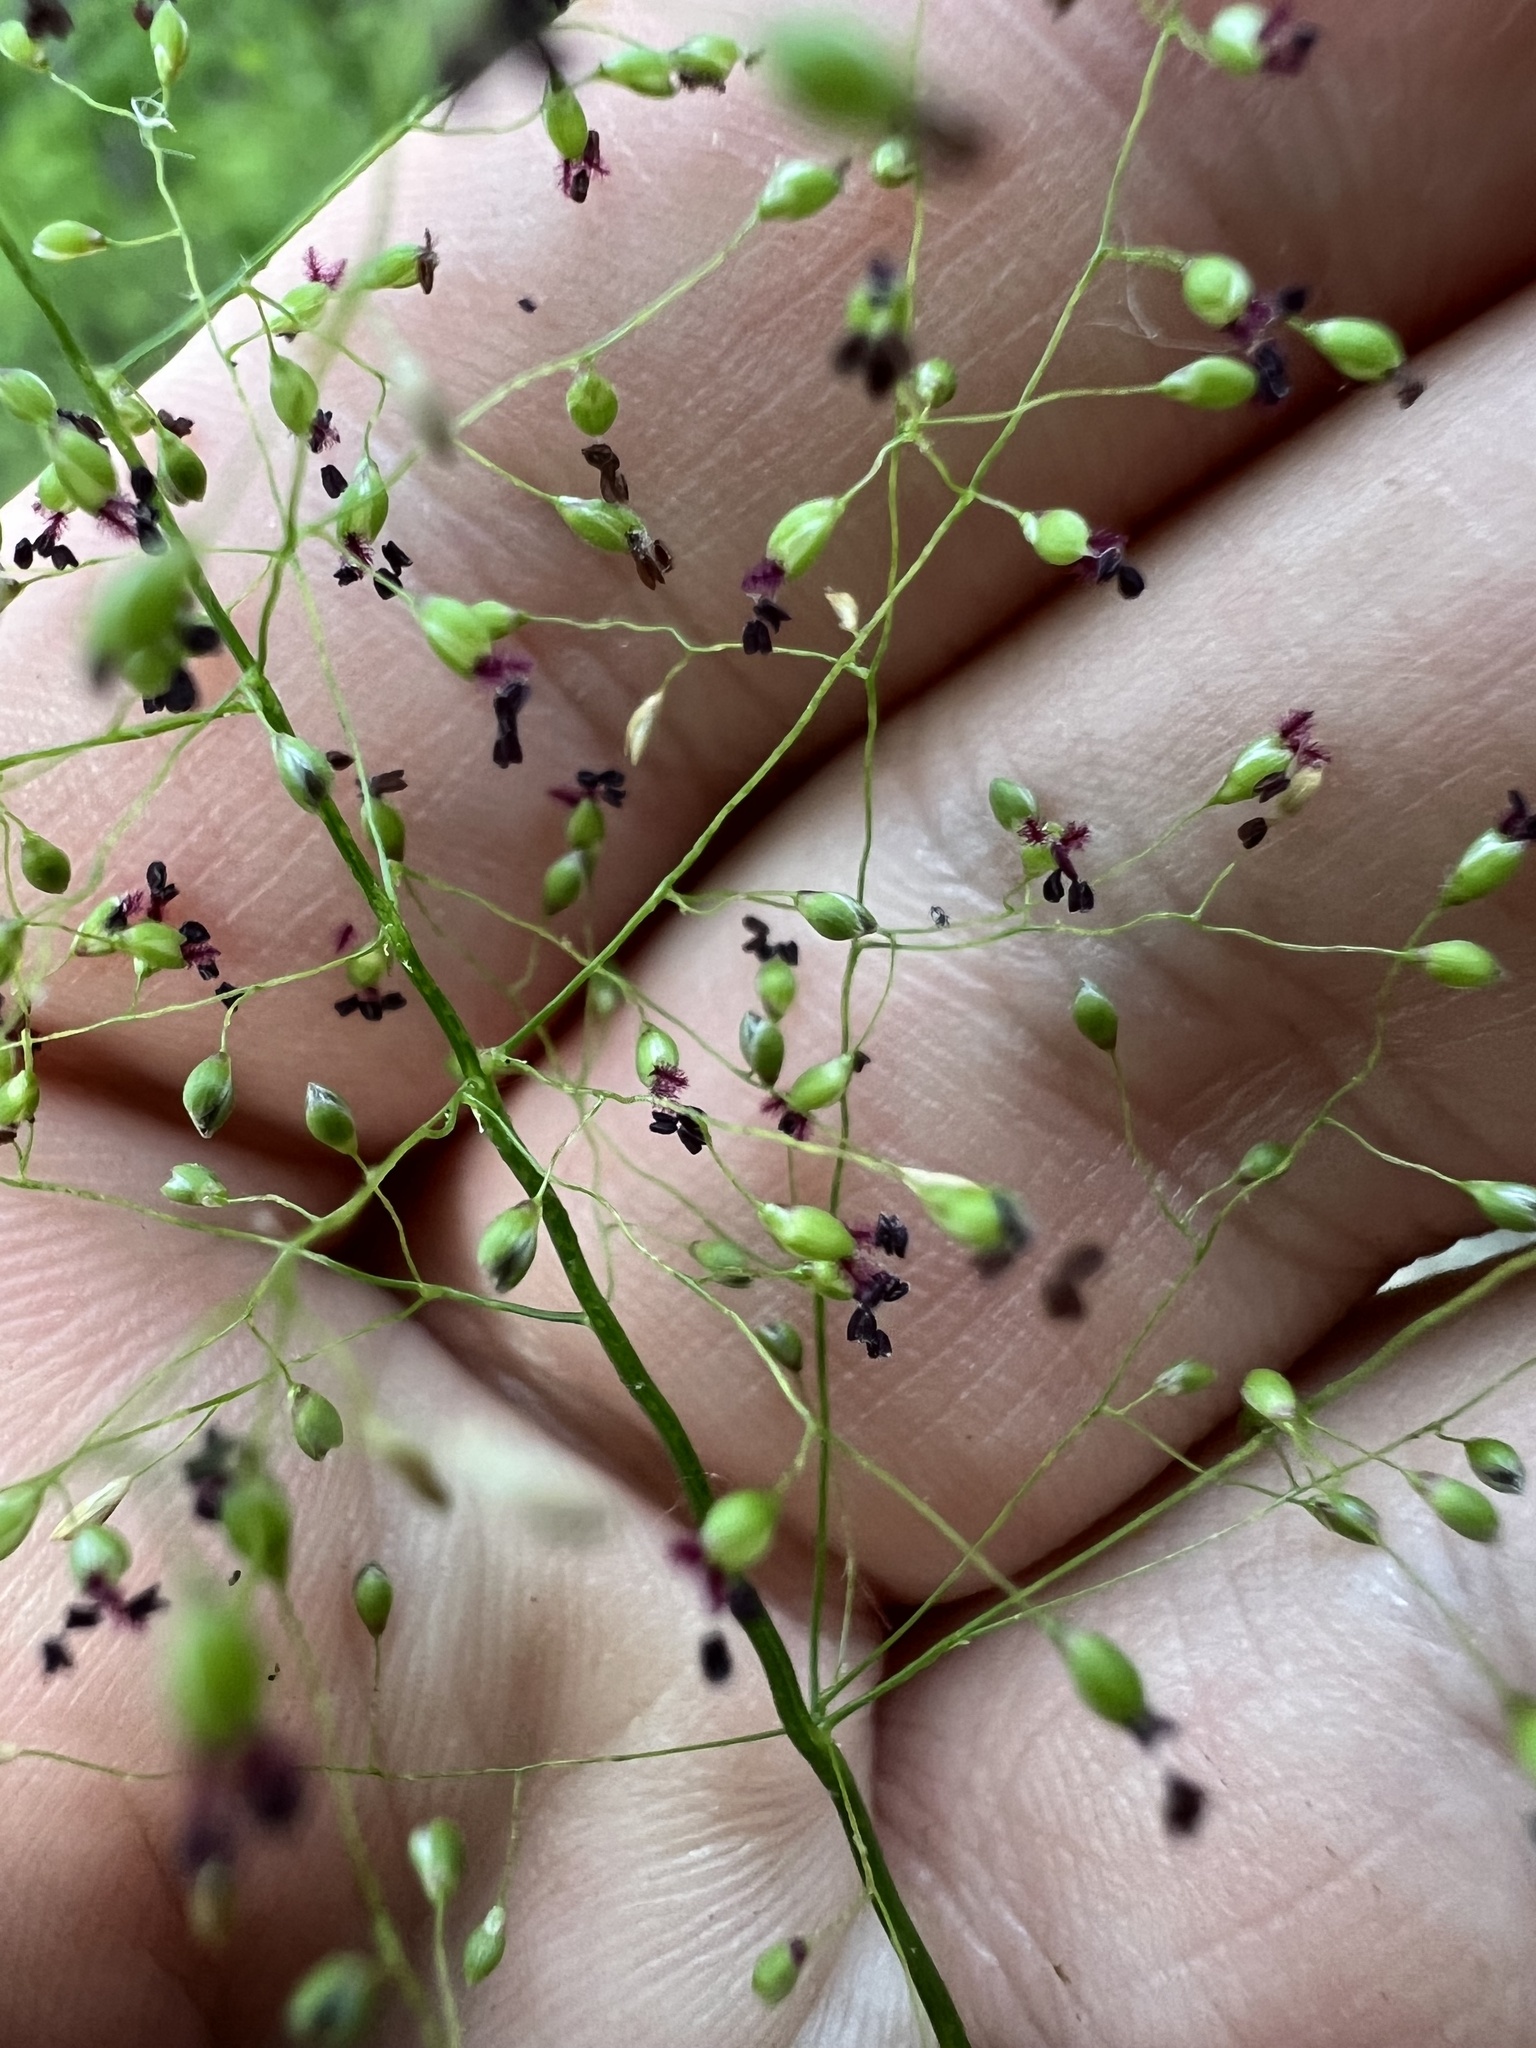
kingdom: Plantae
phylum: Tracheophyta
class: Liliopsida
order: Poales
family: Poaceae
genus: Dichanthelium
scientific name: Dichanthelium microcarpon
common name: Small-fruited witchgrass
